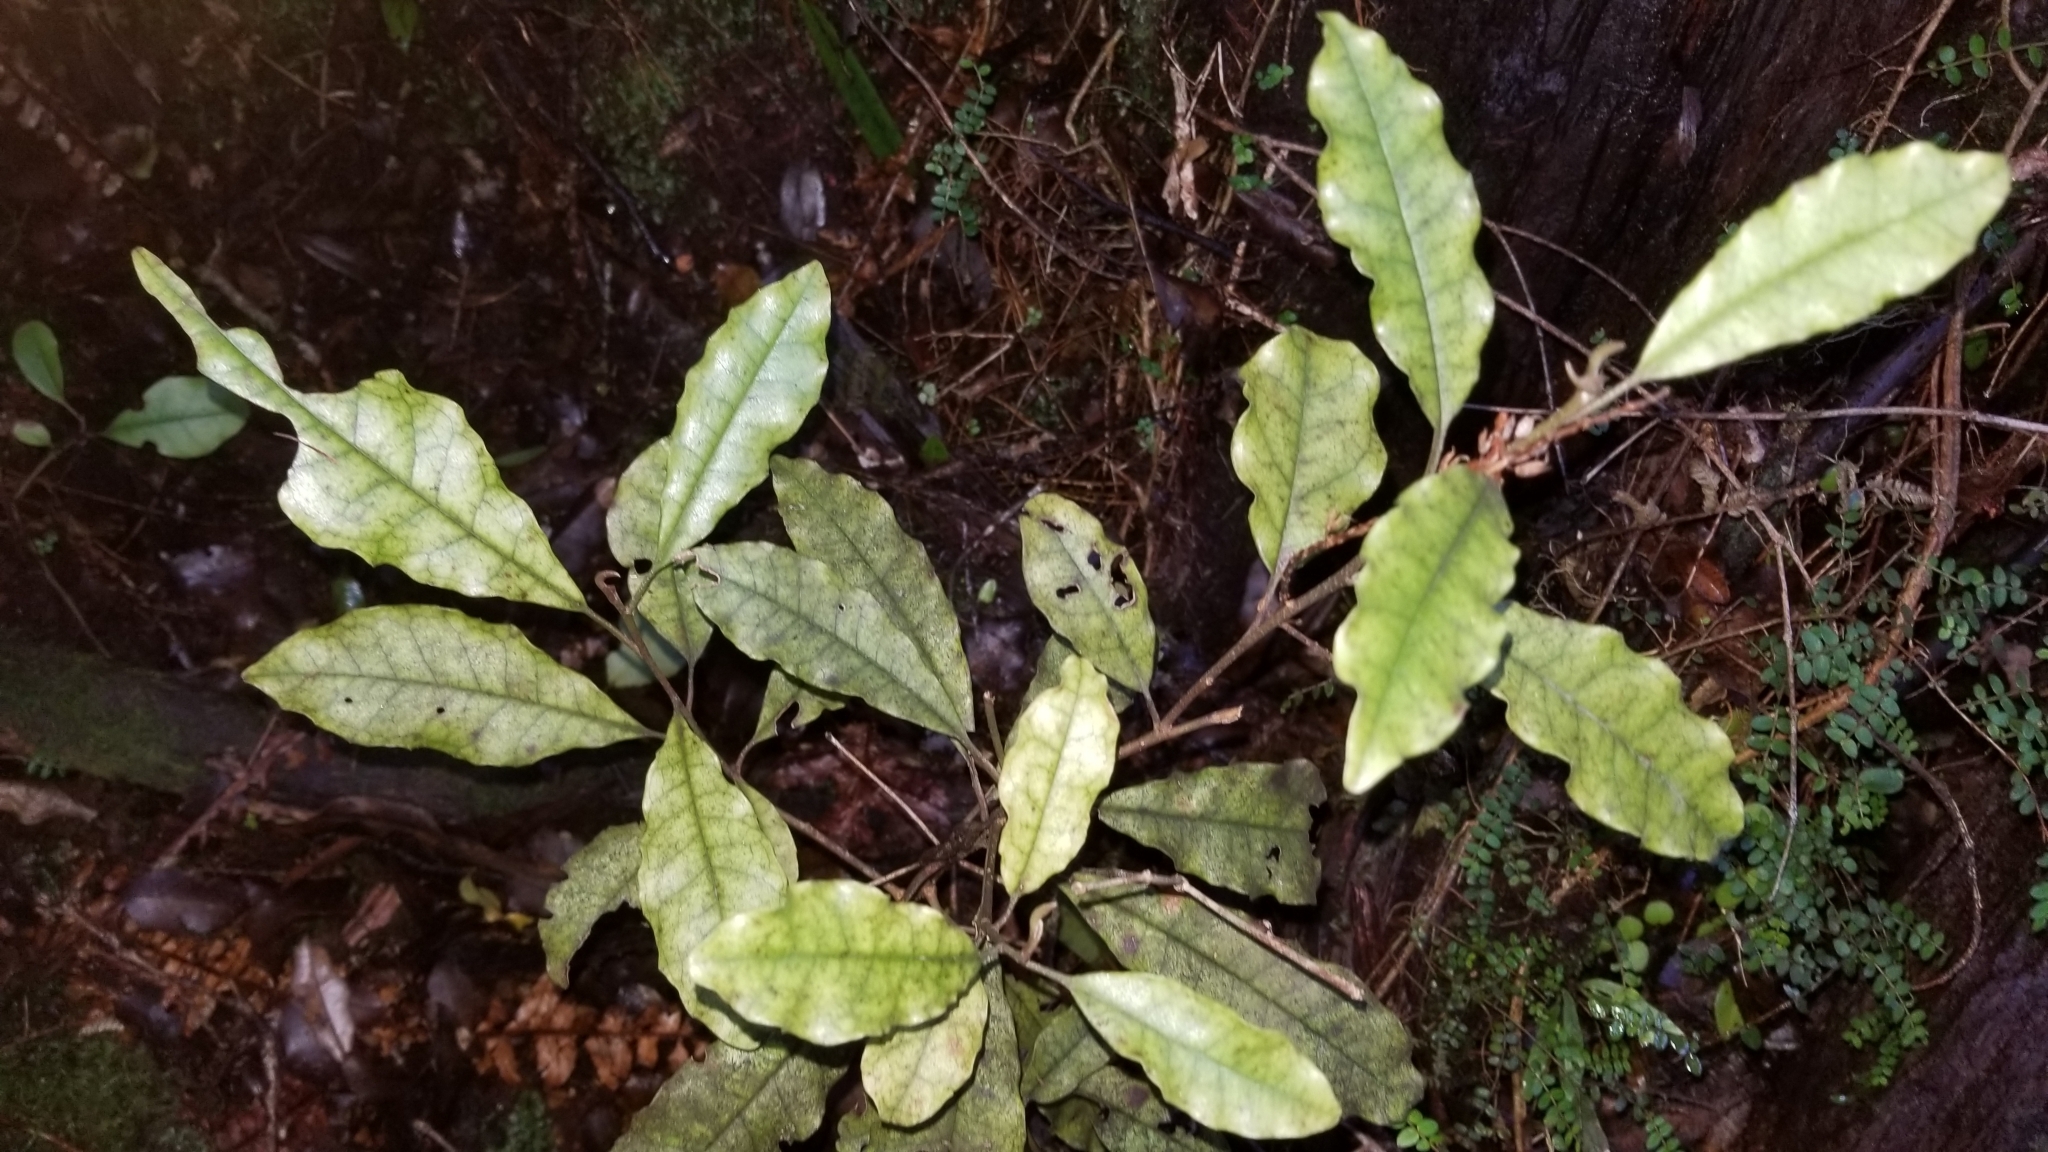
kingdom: Plantae
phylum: Tracheophyta
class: Magnoliopsida
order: Paracryphiales
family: Paracryphiaceae
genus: Quintinia
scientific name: Quintinia serrata
